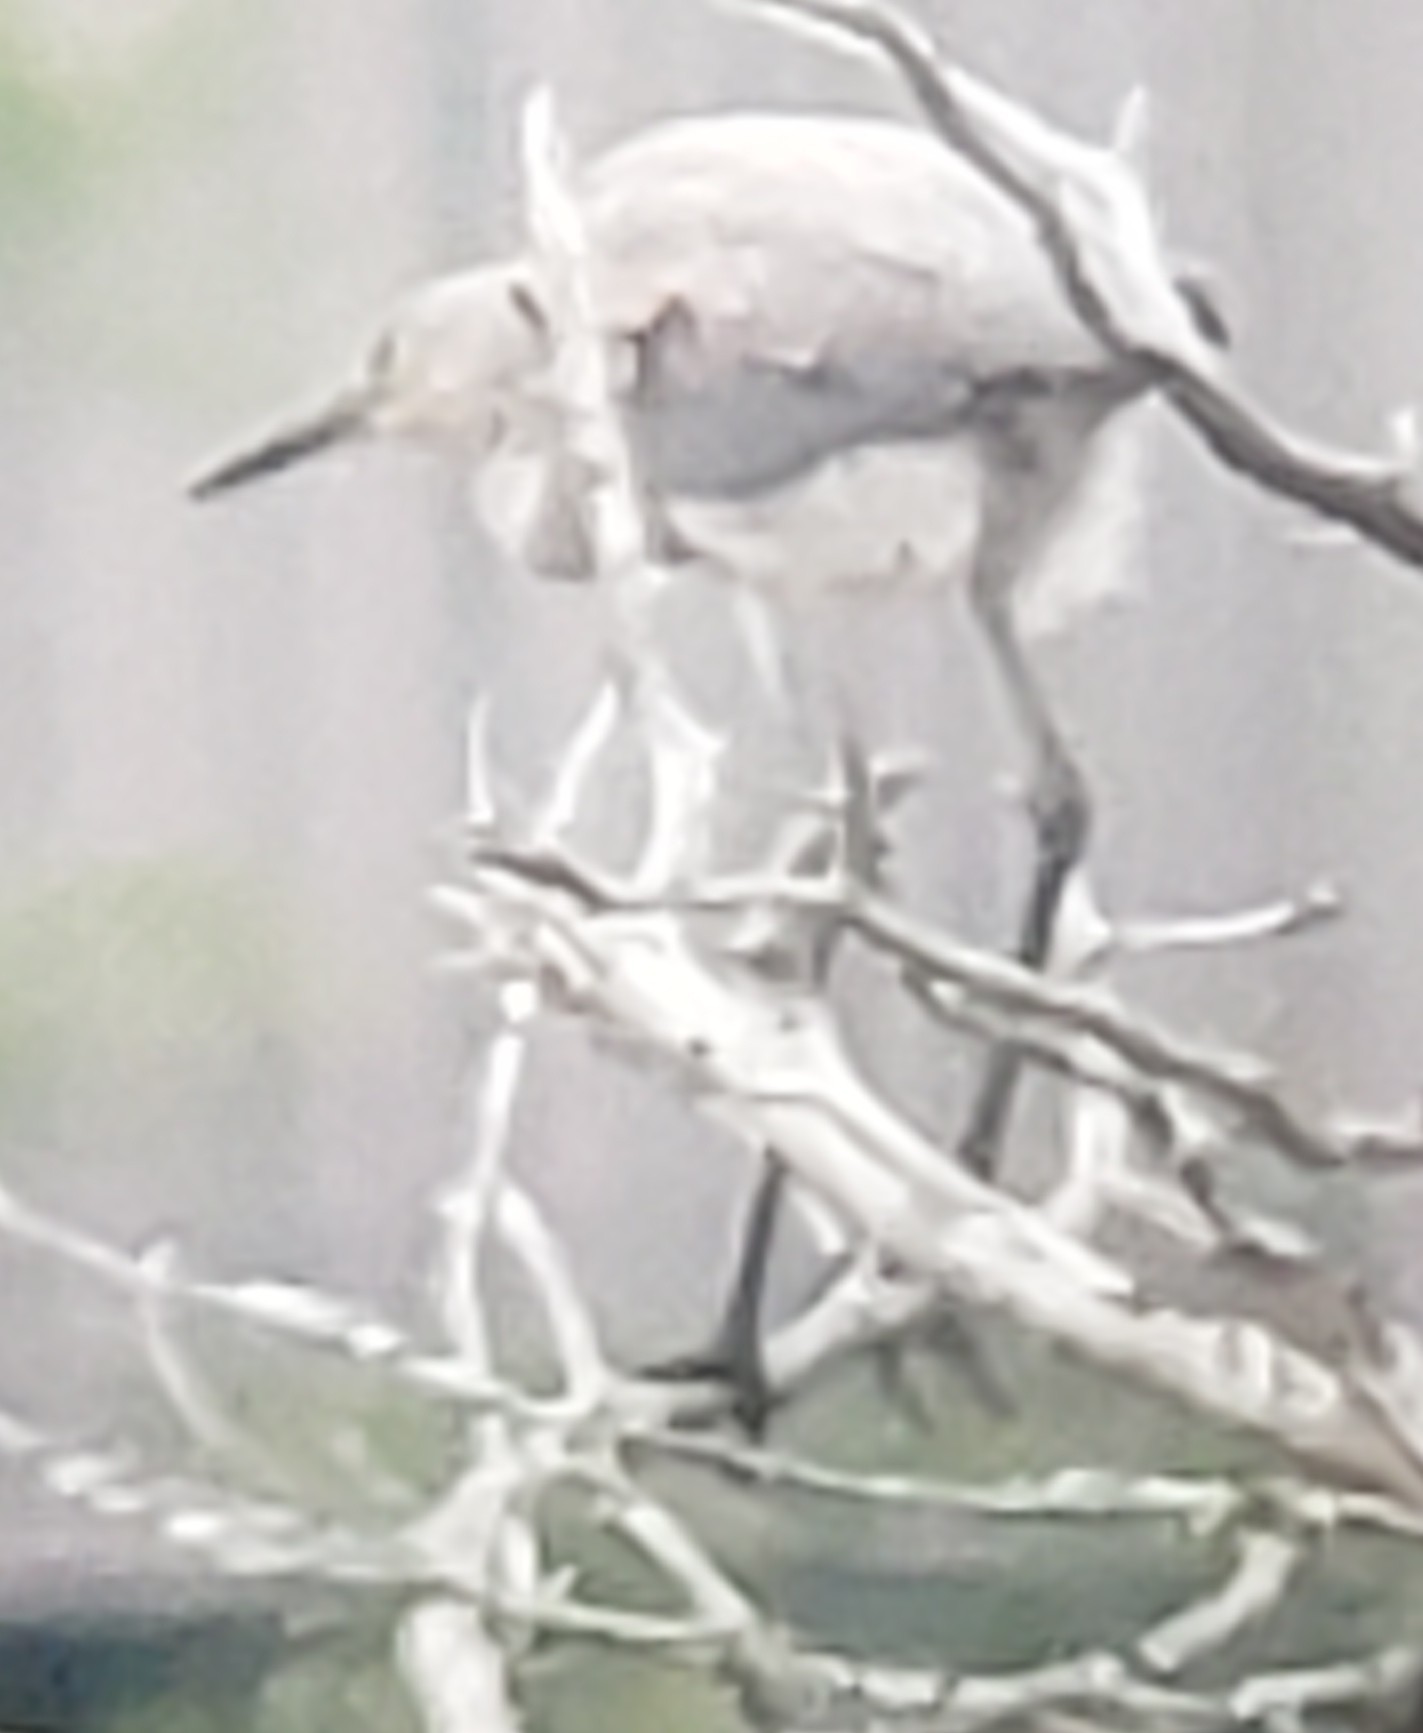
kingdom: Animalia
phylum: Chordata
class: Aves
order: Pelecaniformes
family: Ardeidae
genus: Egretta
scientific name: Egretta rufescens
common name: Reddish egret
